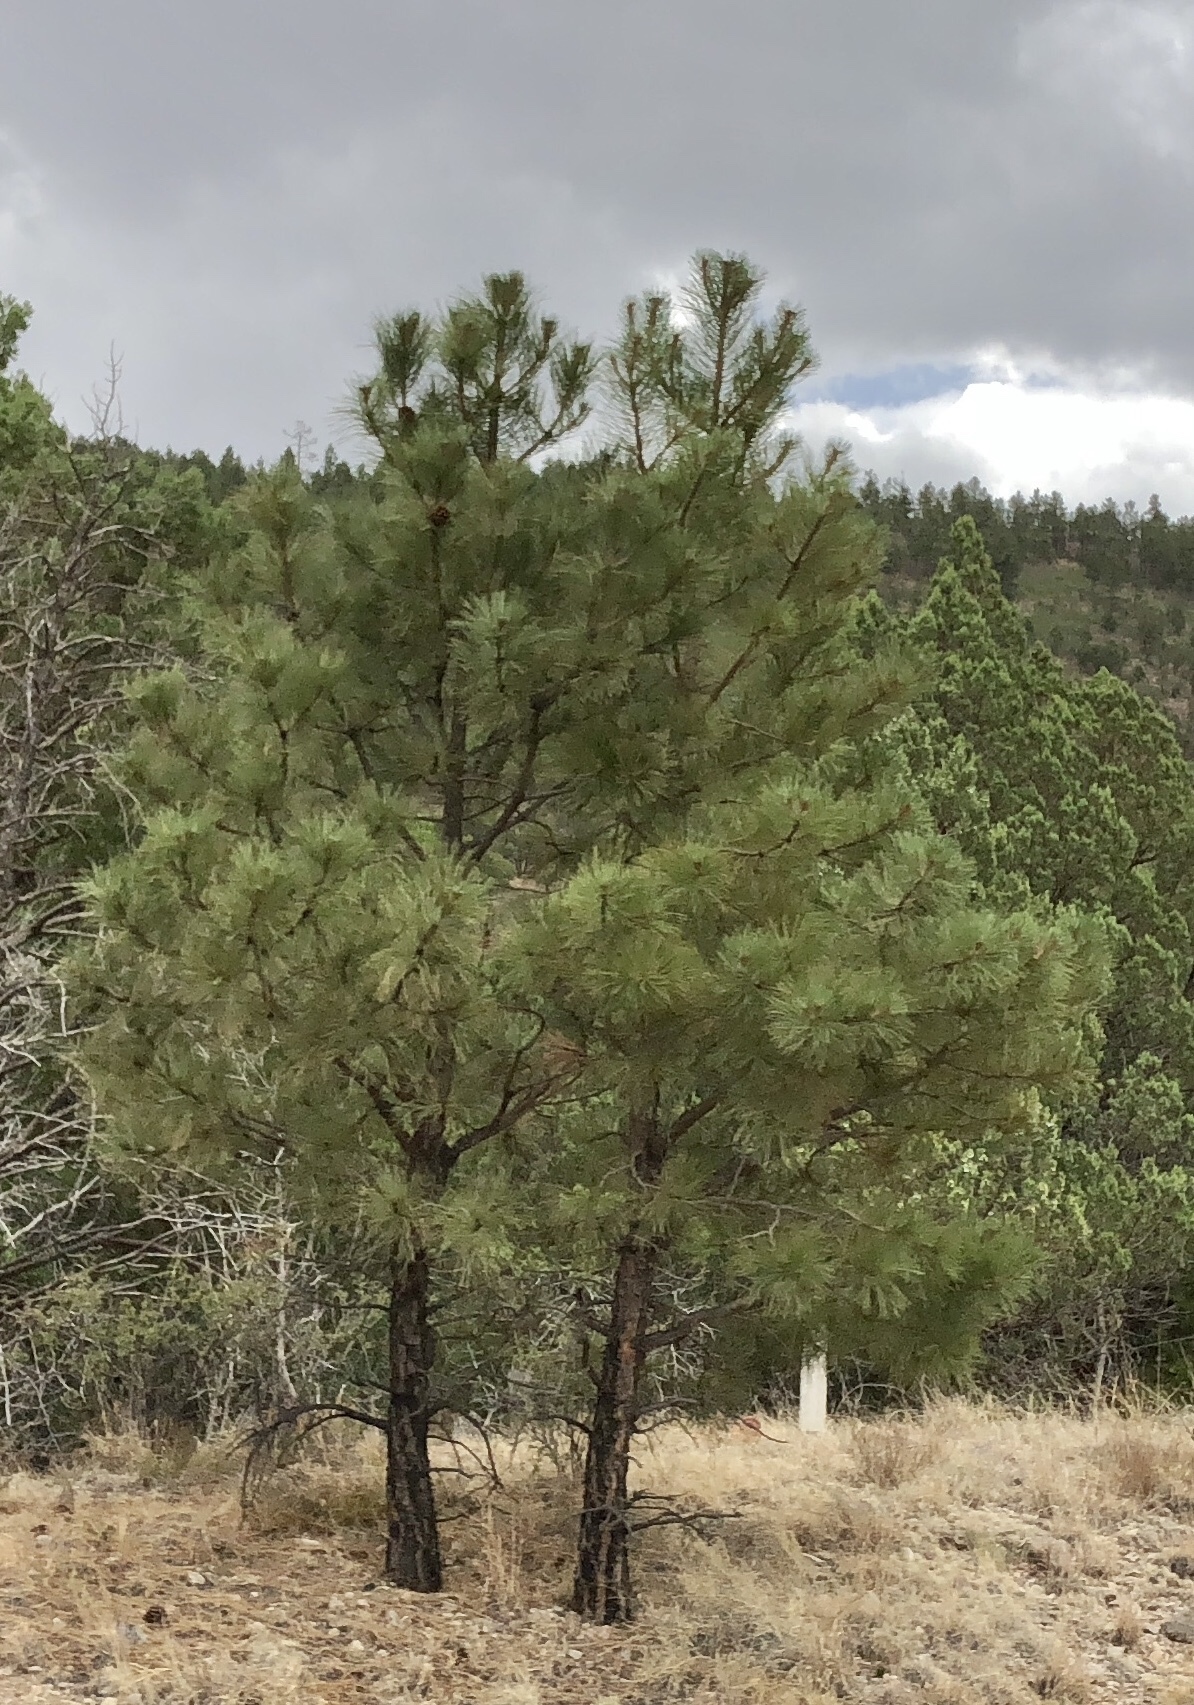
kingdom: Plantae
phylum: Tracheophyta
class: Pinopsida
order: Pinales
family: Pinaceae
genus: Pinus
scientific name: Pinus ponderosa
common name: Western yellow-pine
